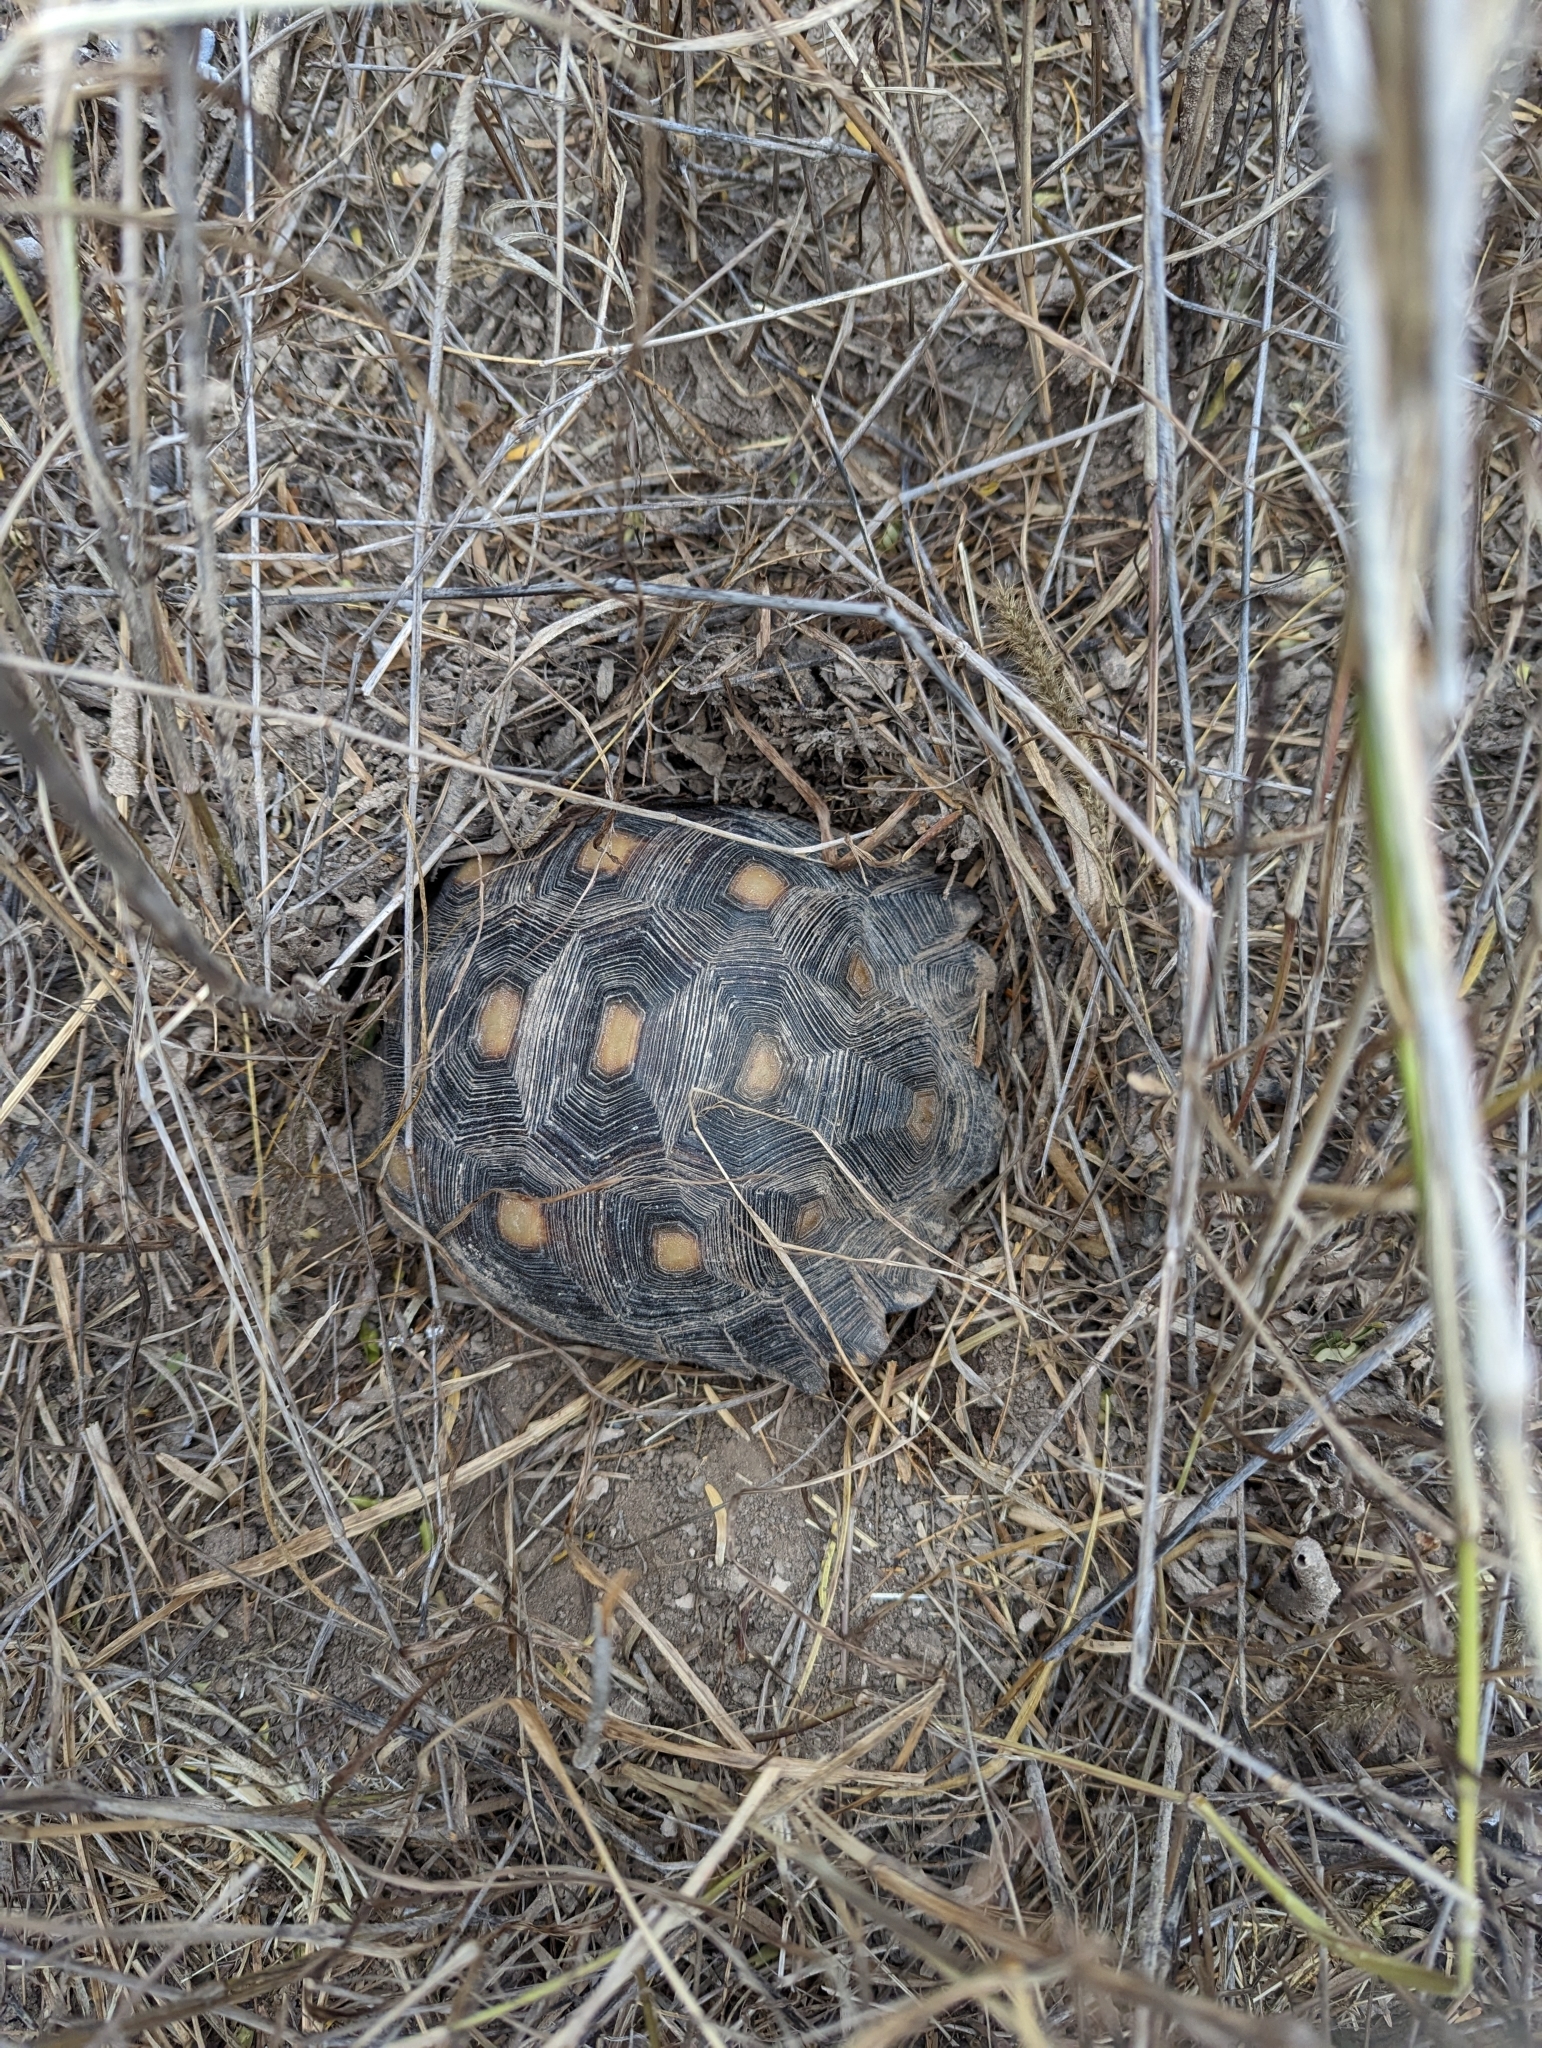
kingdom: Animalia
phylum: Chordata
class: Testudines
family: Testudinidae
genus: Gopherus
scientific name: Gopherus berlandieri
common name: Texas (gopher )tortoise
